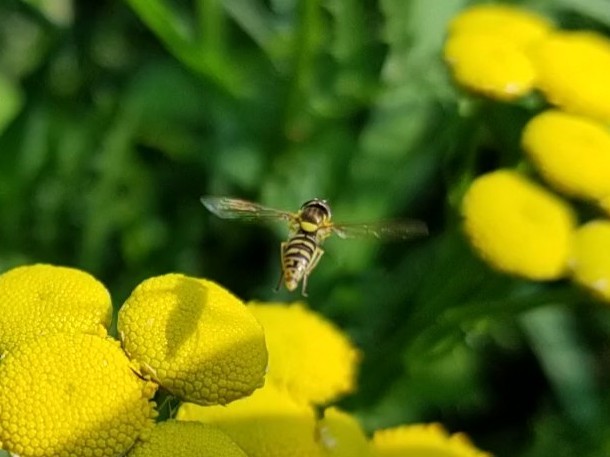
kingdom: Animalia
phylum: Arthropoda
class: Insecta
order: Diptera
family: Syrphidae
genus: Sphaerophoria
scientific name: Sphaerophoria
